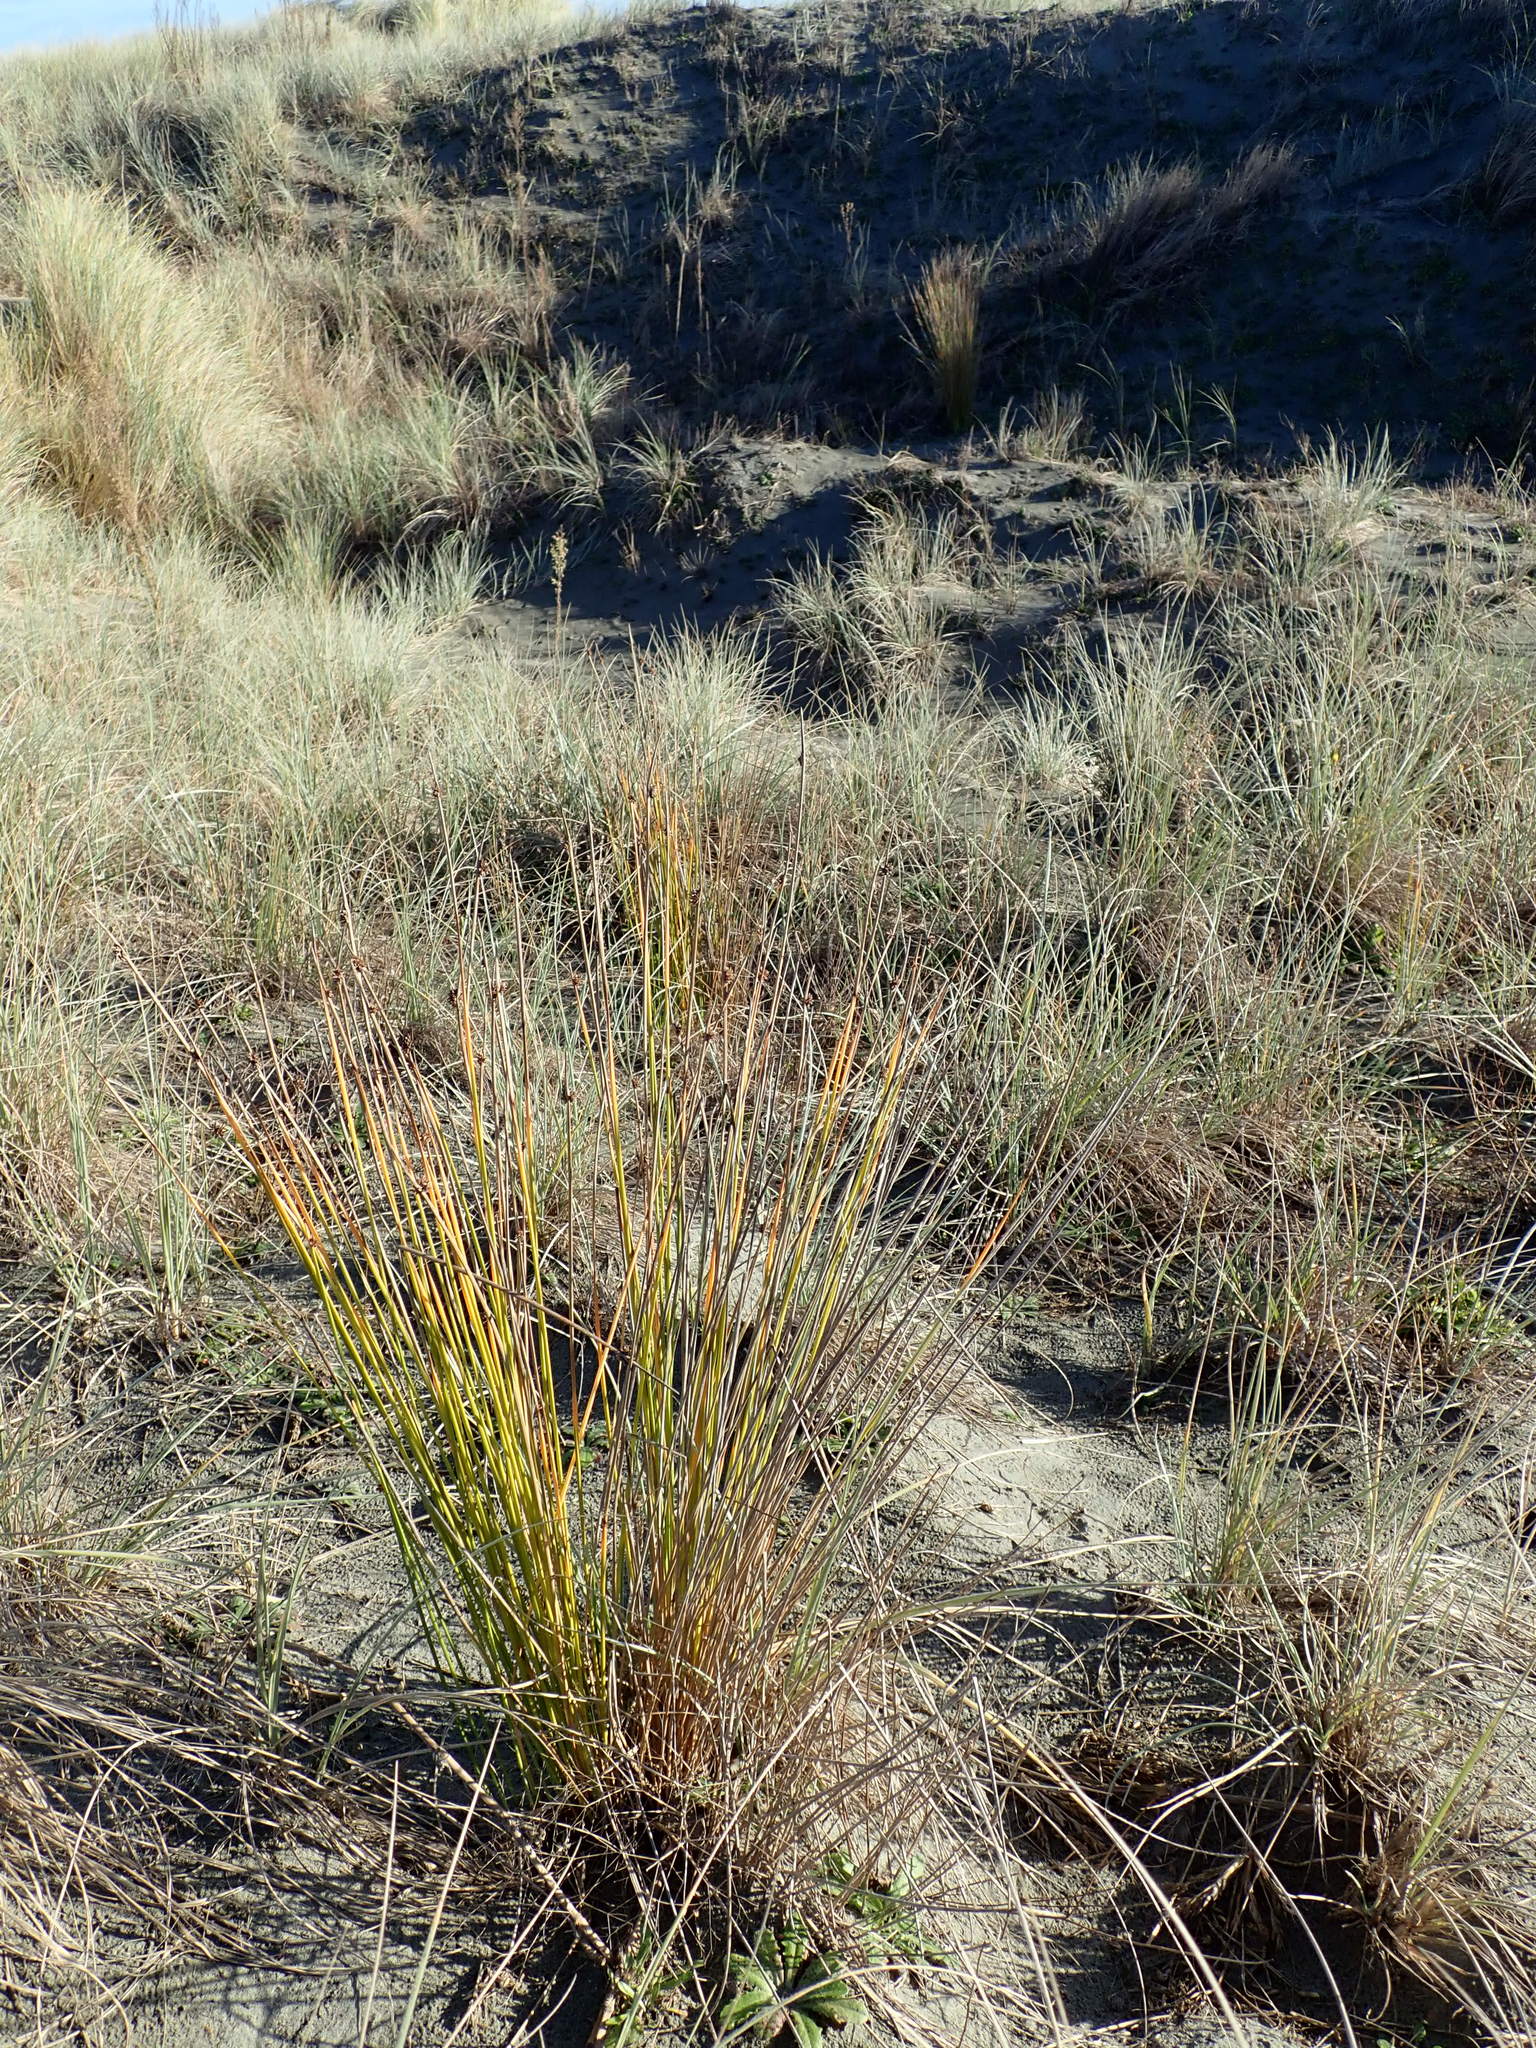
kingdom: Plantae
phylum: Tracheophyta
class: Liliopsida
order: Poales
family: Cyperaceae
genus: Ficinia
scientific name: Ficinia nodosa
